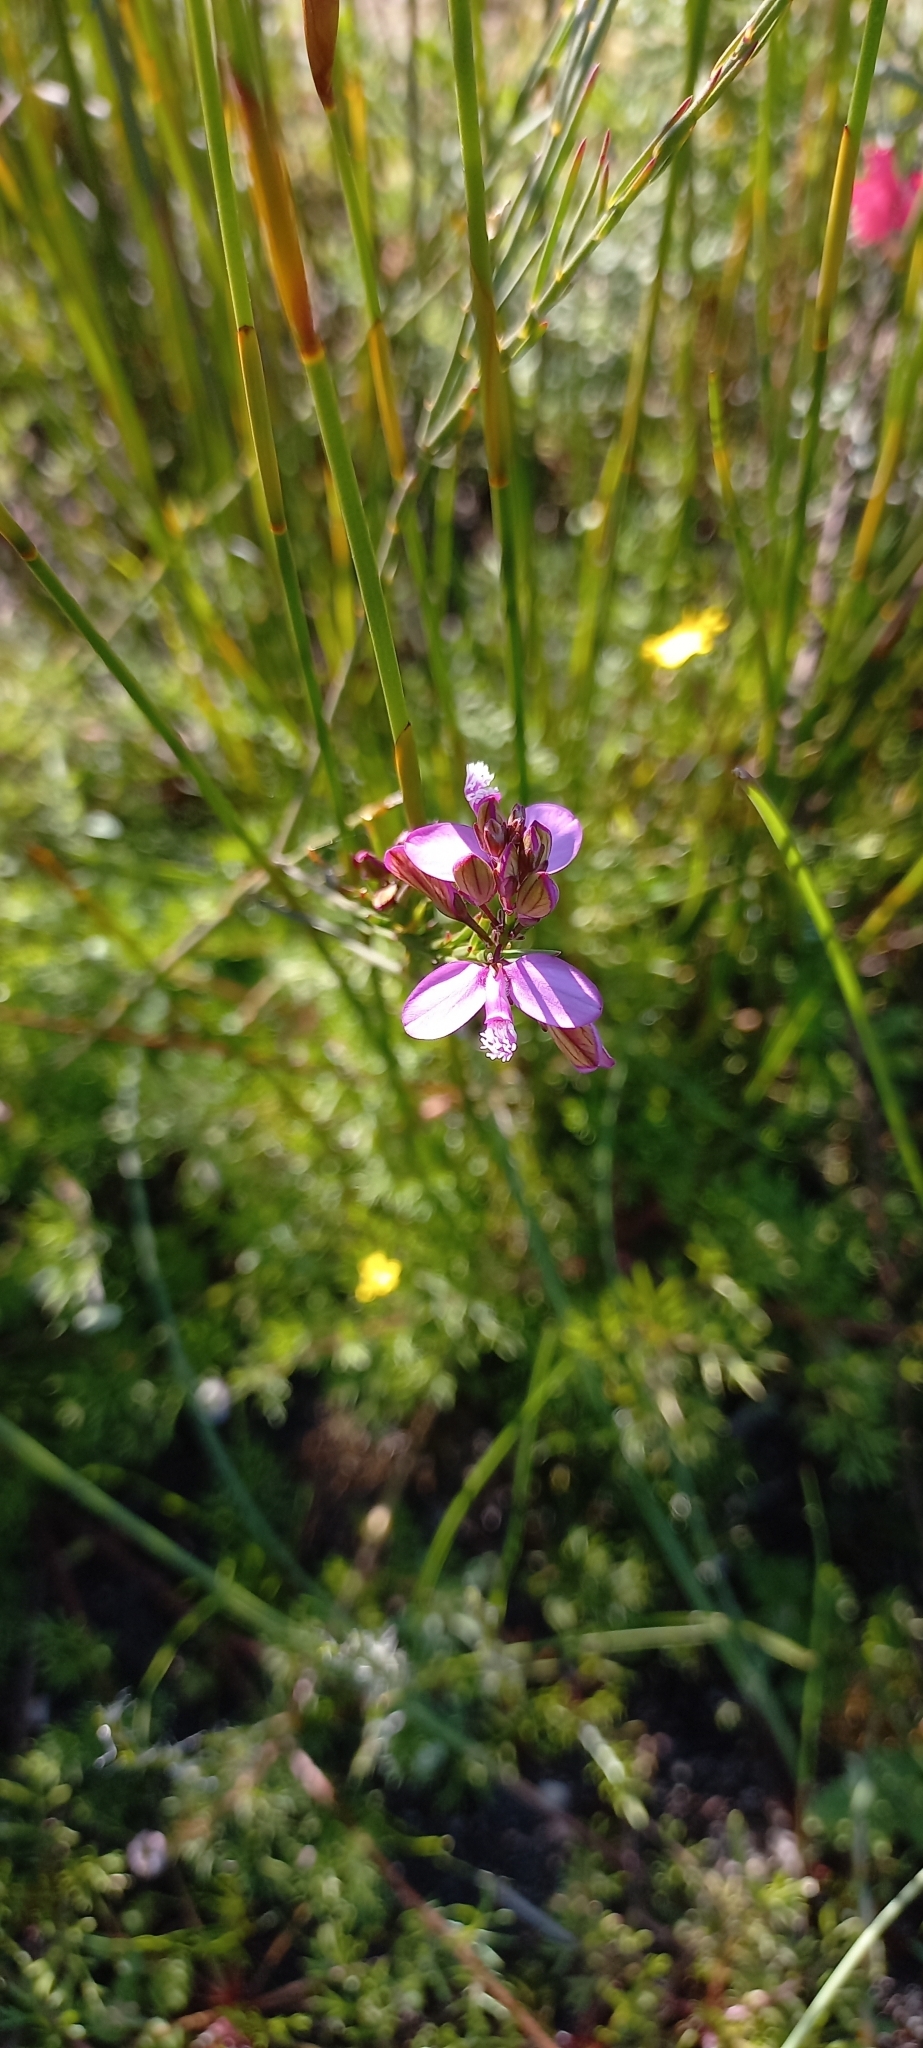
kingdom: Plantae
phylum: Tracheophyta
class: Magnoliopsida
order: Fabales
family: Polygalaceae
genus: Polygala
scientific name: Polygala garcini
